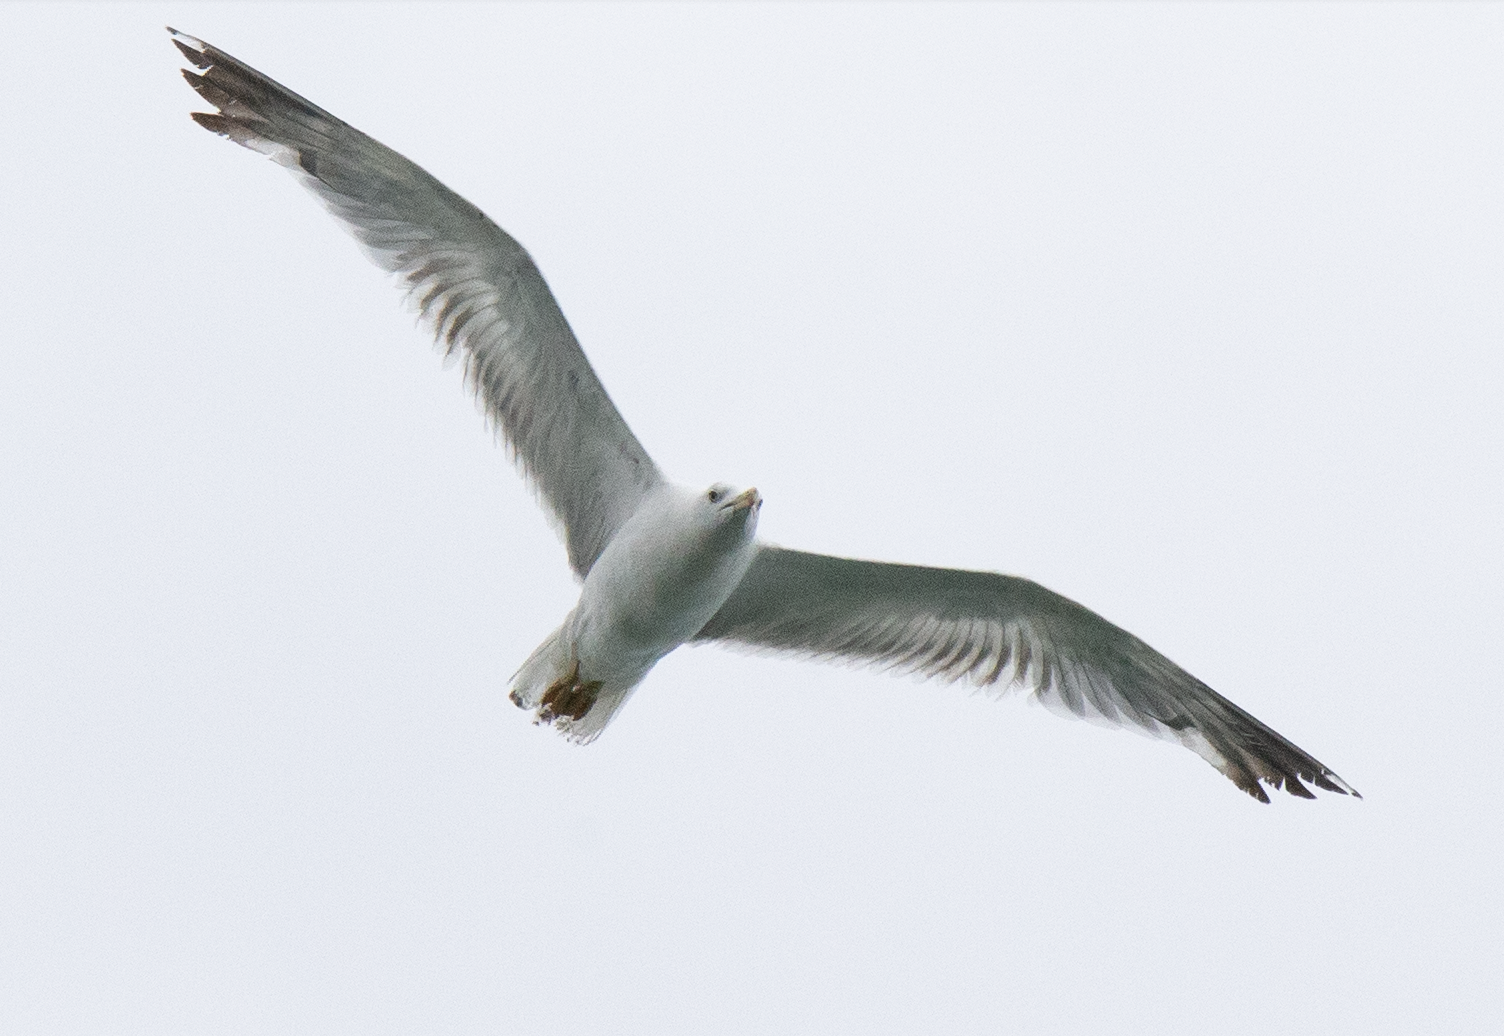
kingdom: Animalia
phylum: Chordata
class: Aves
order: Charadriiformes
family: Laridae
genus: Larus
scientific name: Larus michahellis
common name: Yellow-legged gull
